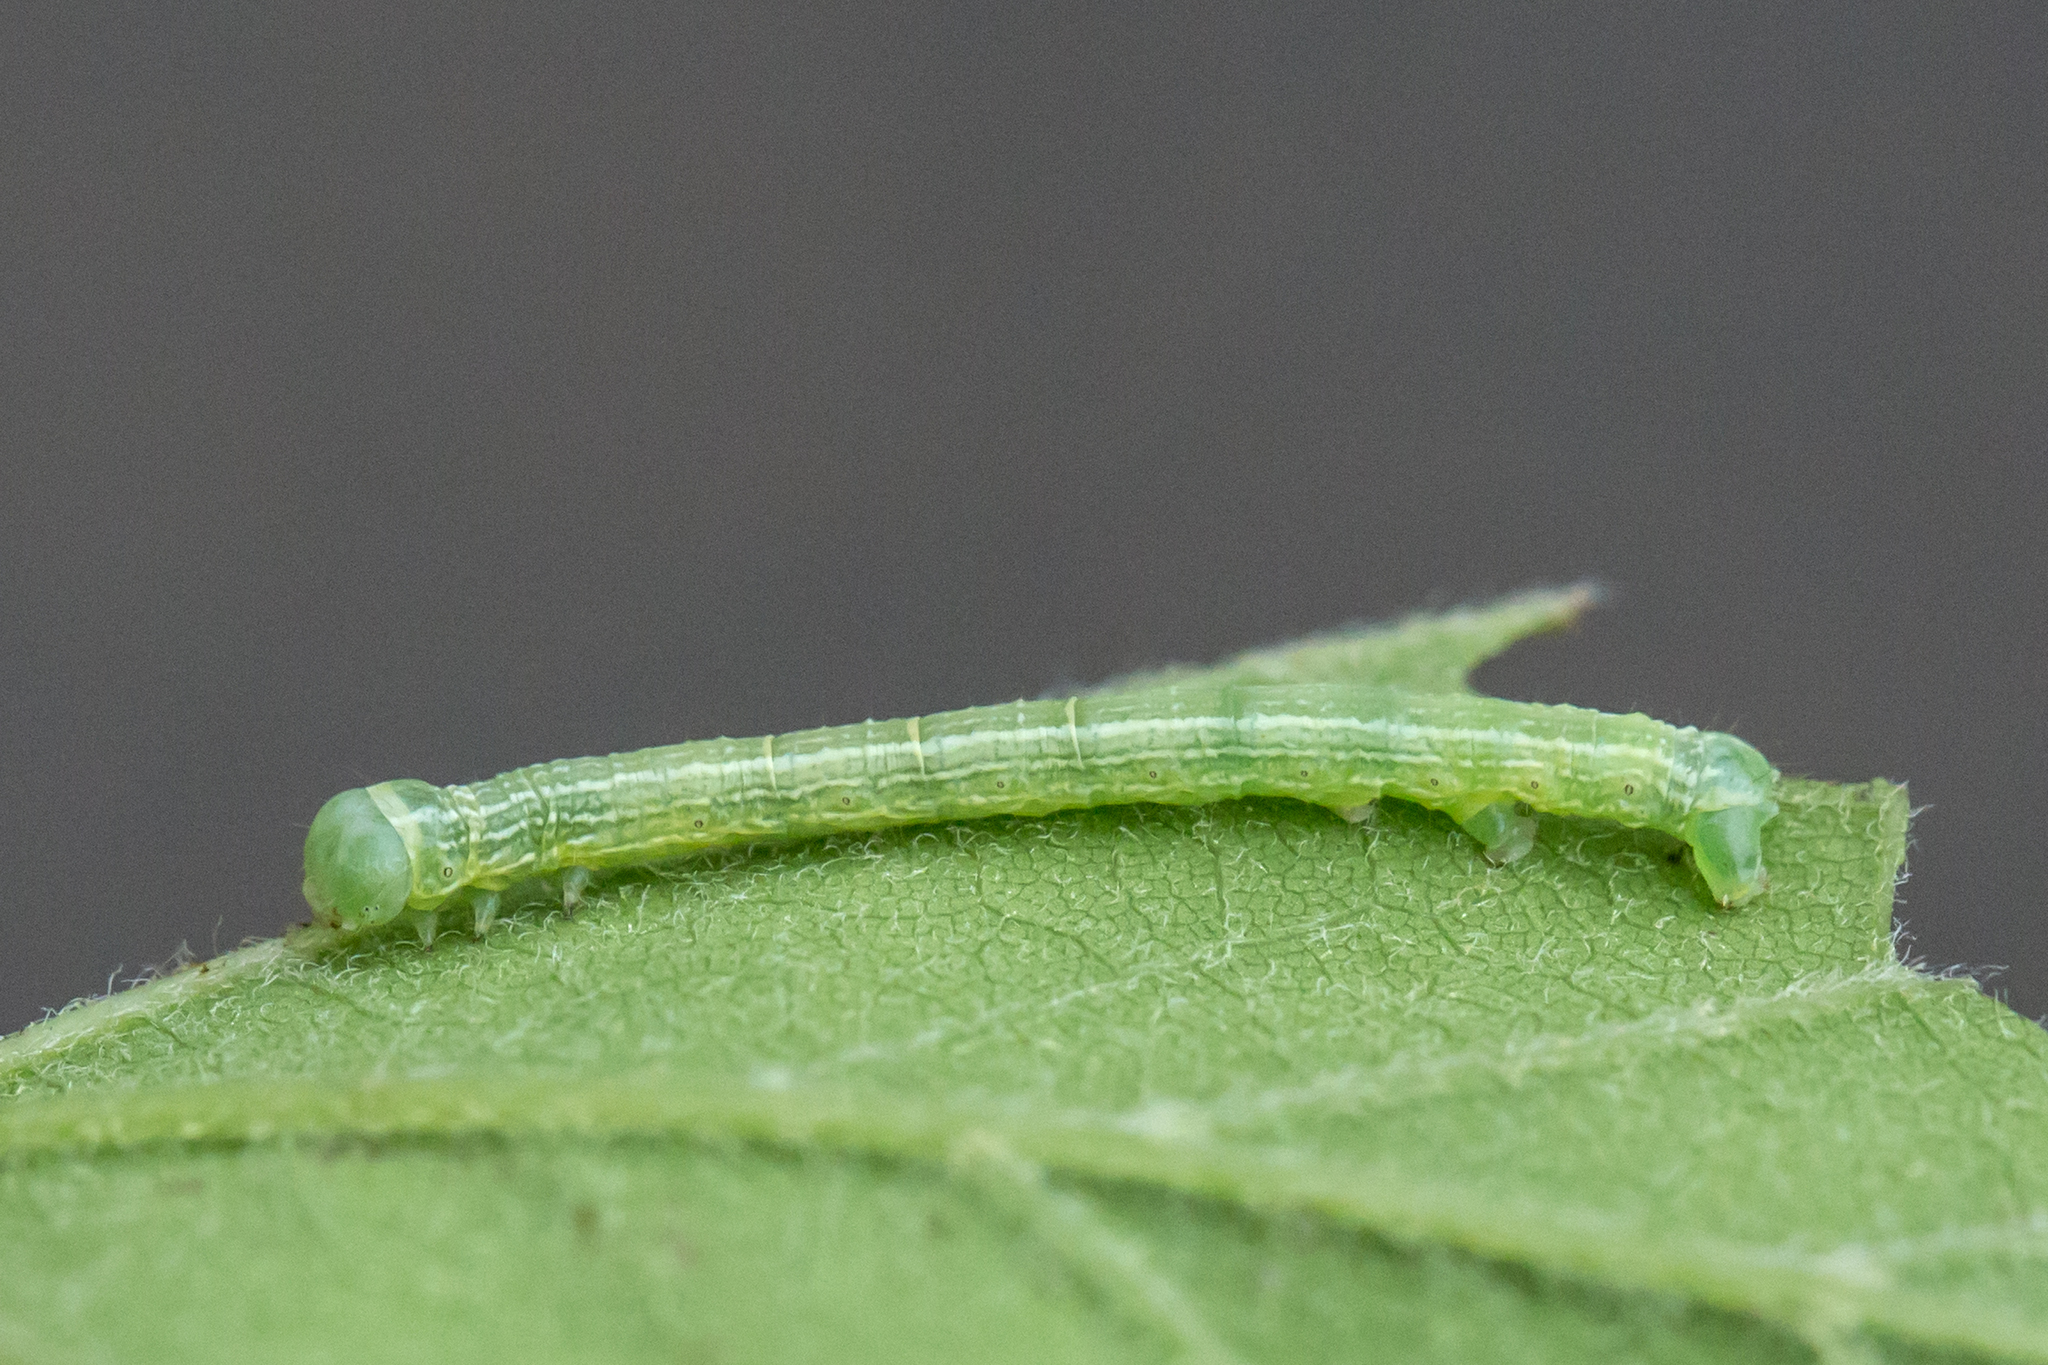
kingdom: Animalia
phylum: Arthropoda
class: Insecta
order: Lepidoptera
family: Geometridae
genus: Alsophila
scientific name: Alsophila pometaria
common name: Fall cankerworm
